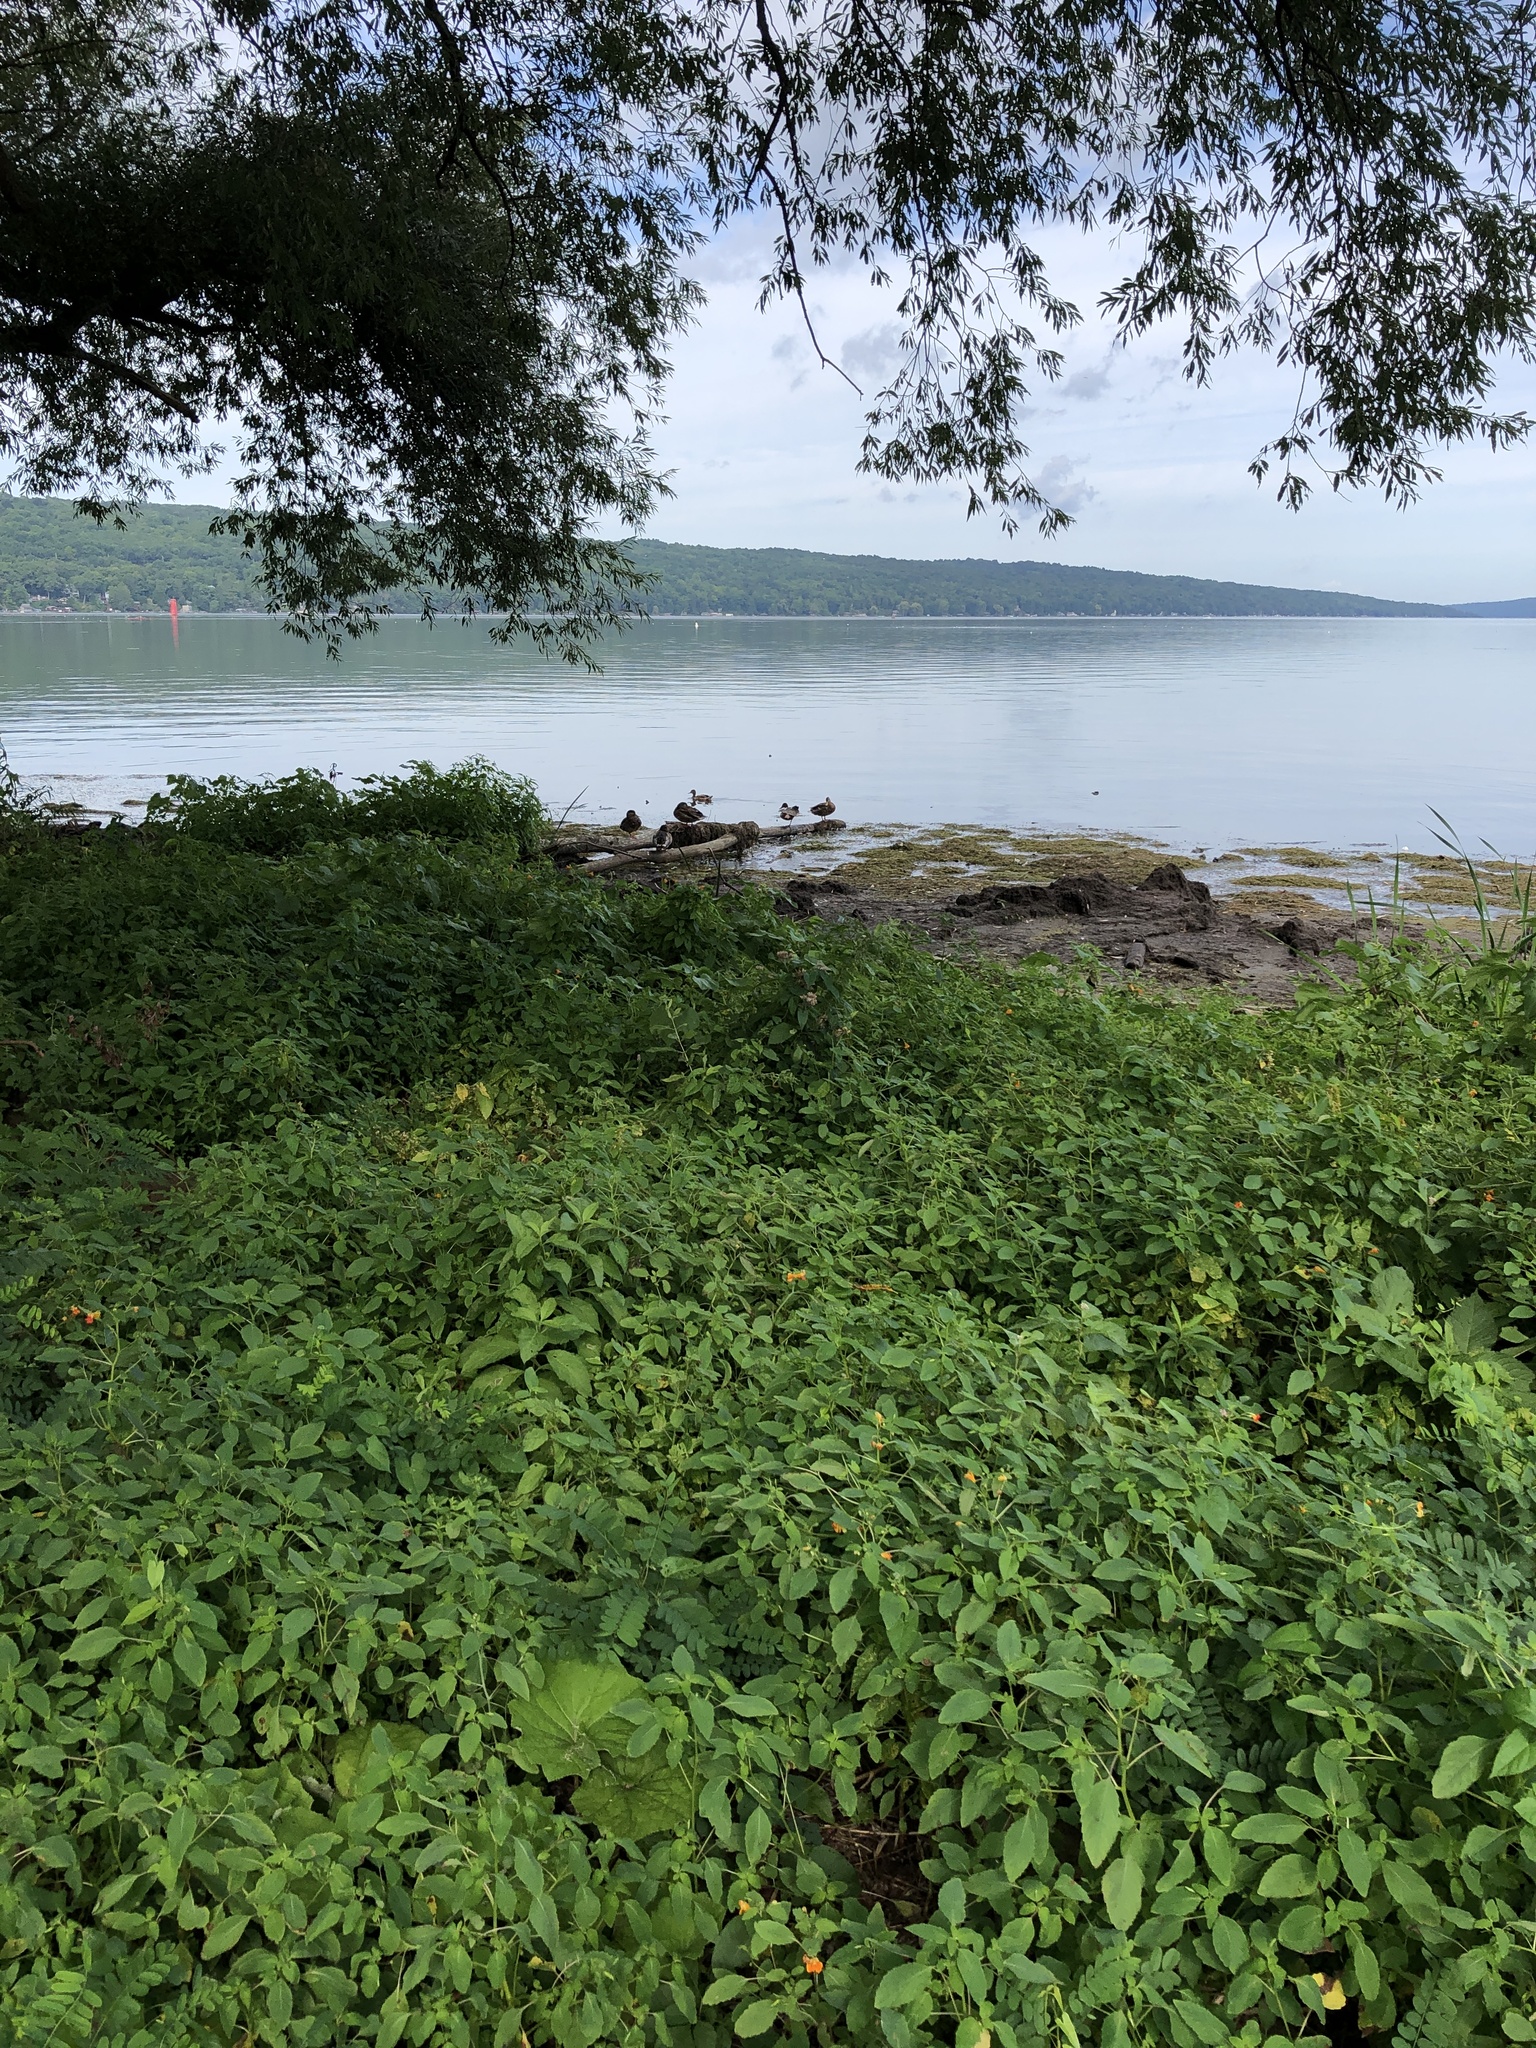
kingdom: Animalia
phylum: Chordata
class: Aves
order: Anseriformes
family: Anatidae
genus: Anas
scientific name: Anas platyrhynchos
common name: Mallard
